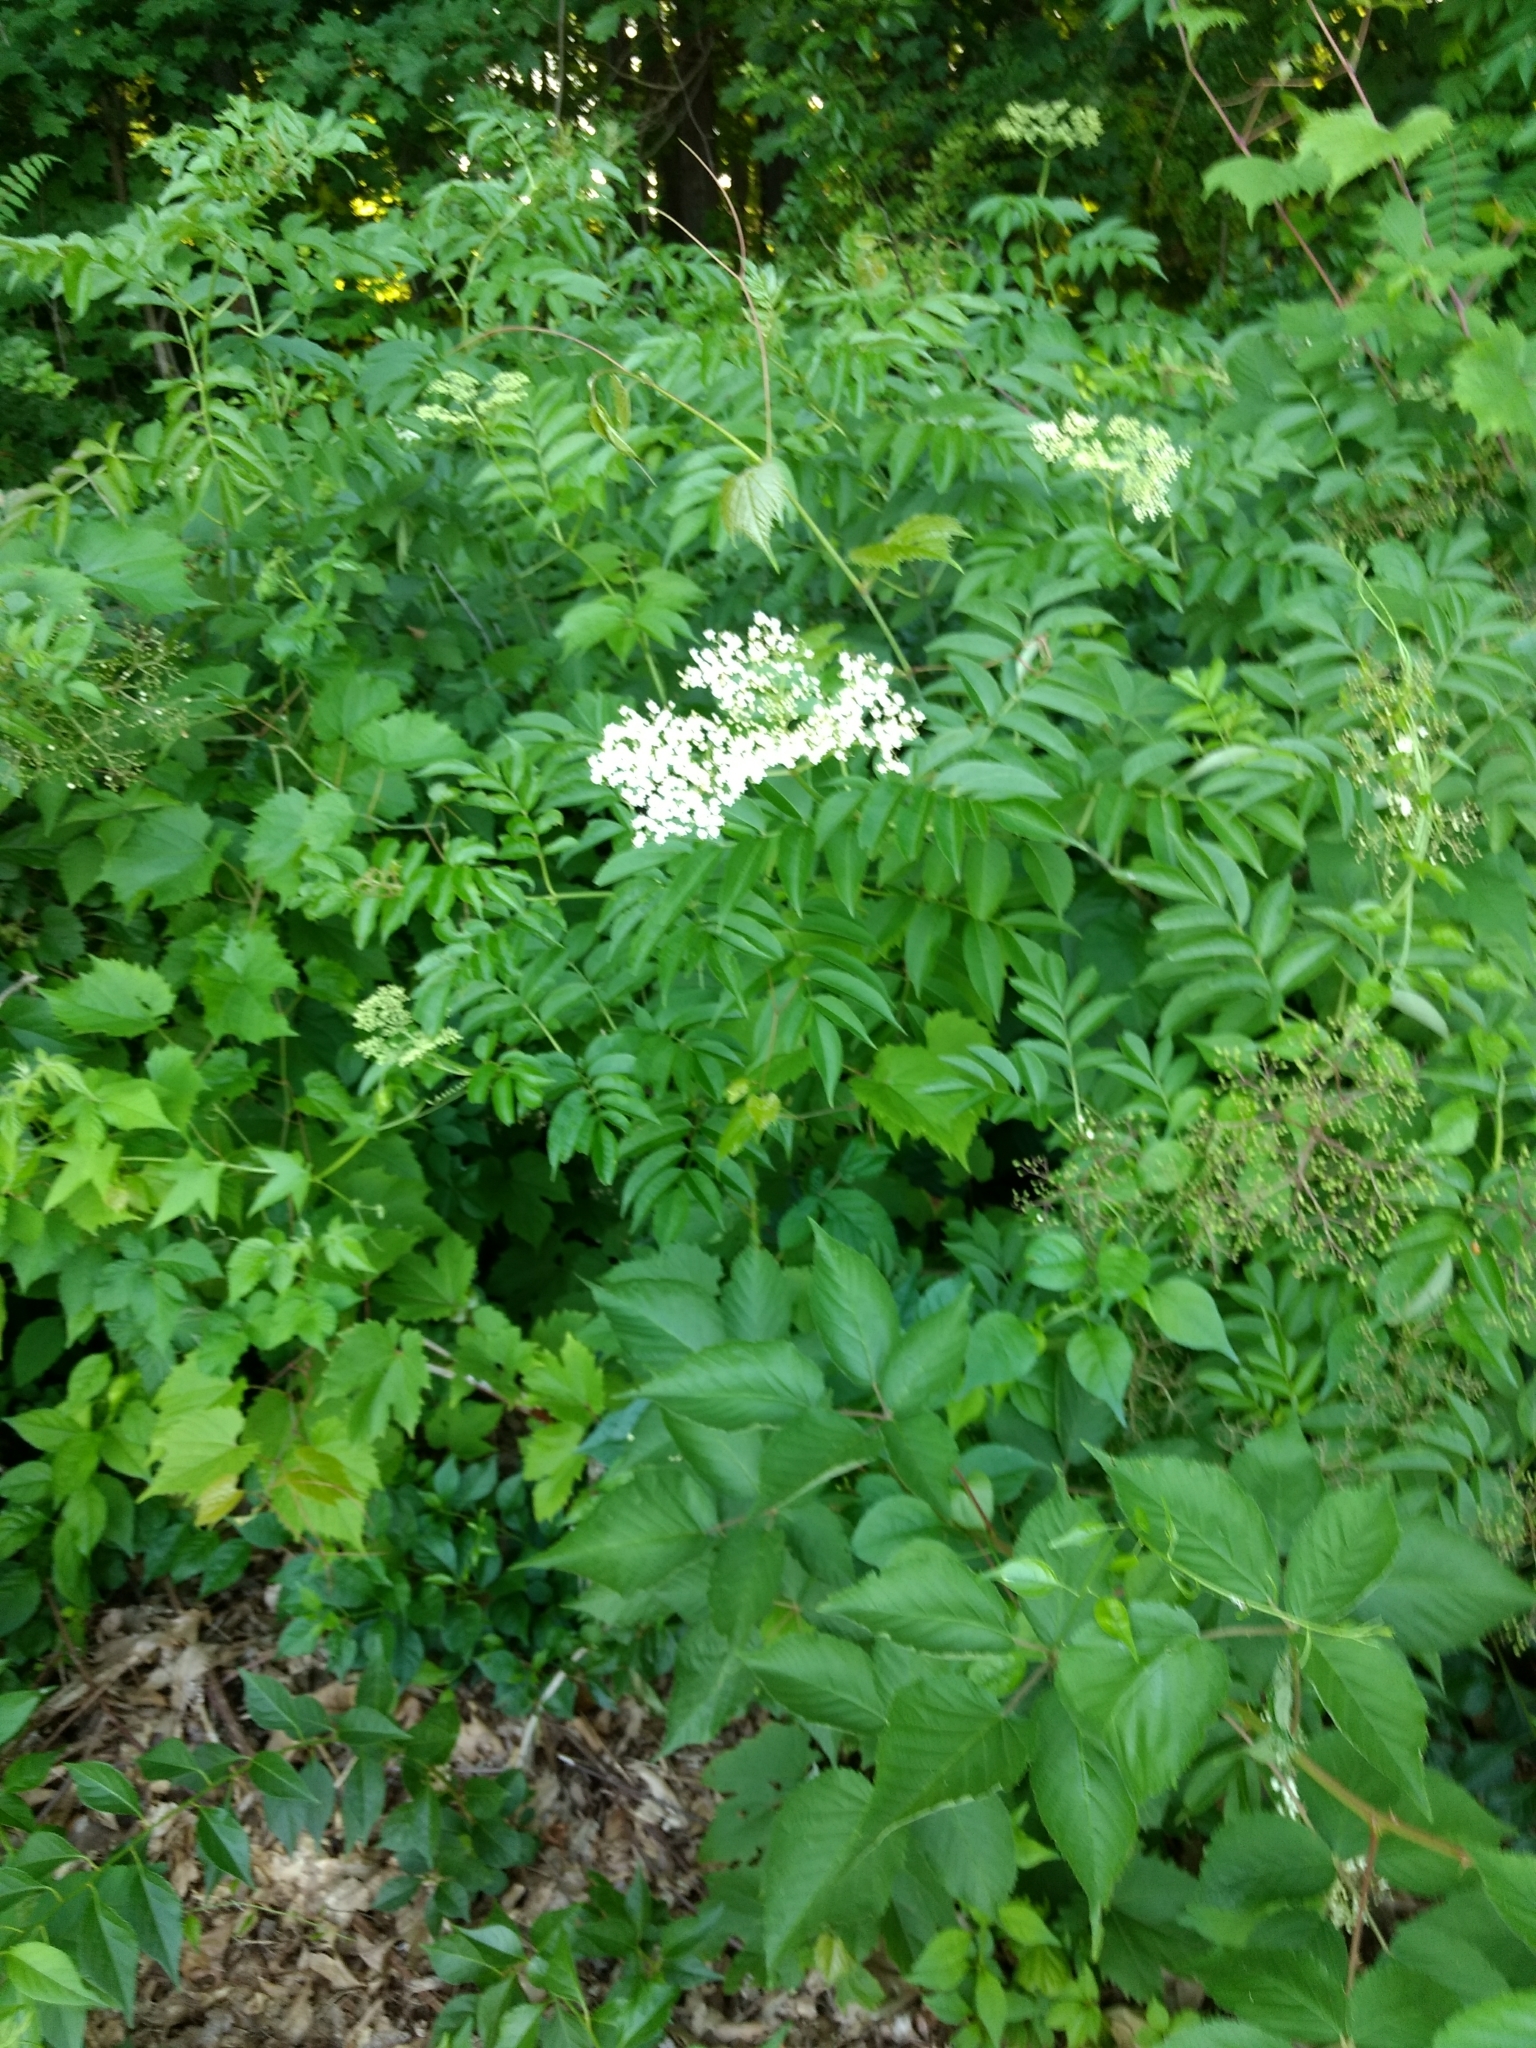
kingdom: Plantae
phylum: Tracheophyta
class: Magnoliopsida
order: Dipsacales
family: Viburnaceae
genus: Sambucus
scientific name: Sambucus canadensis
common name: American elder
